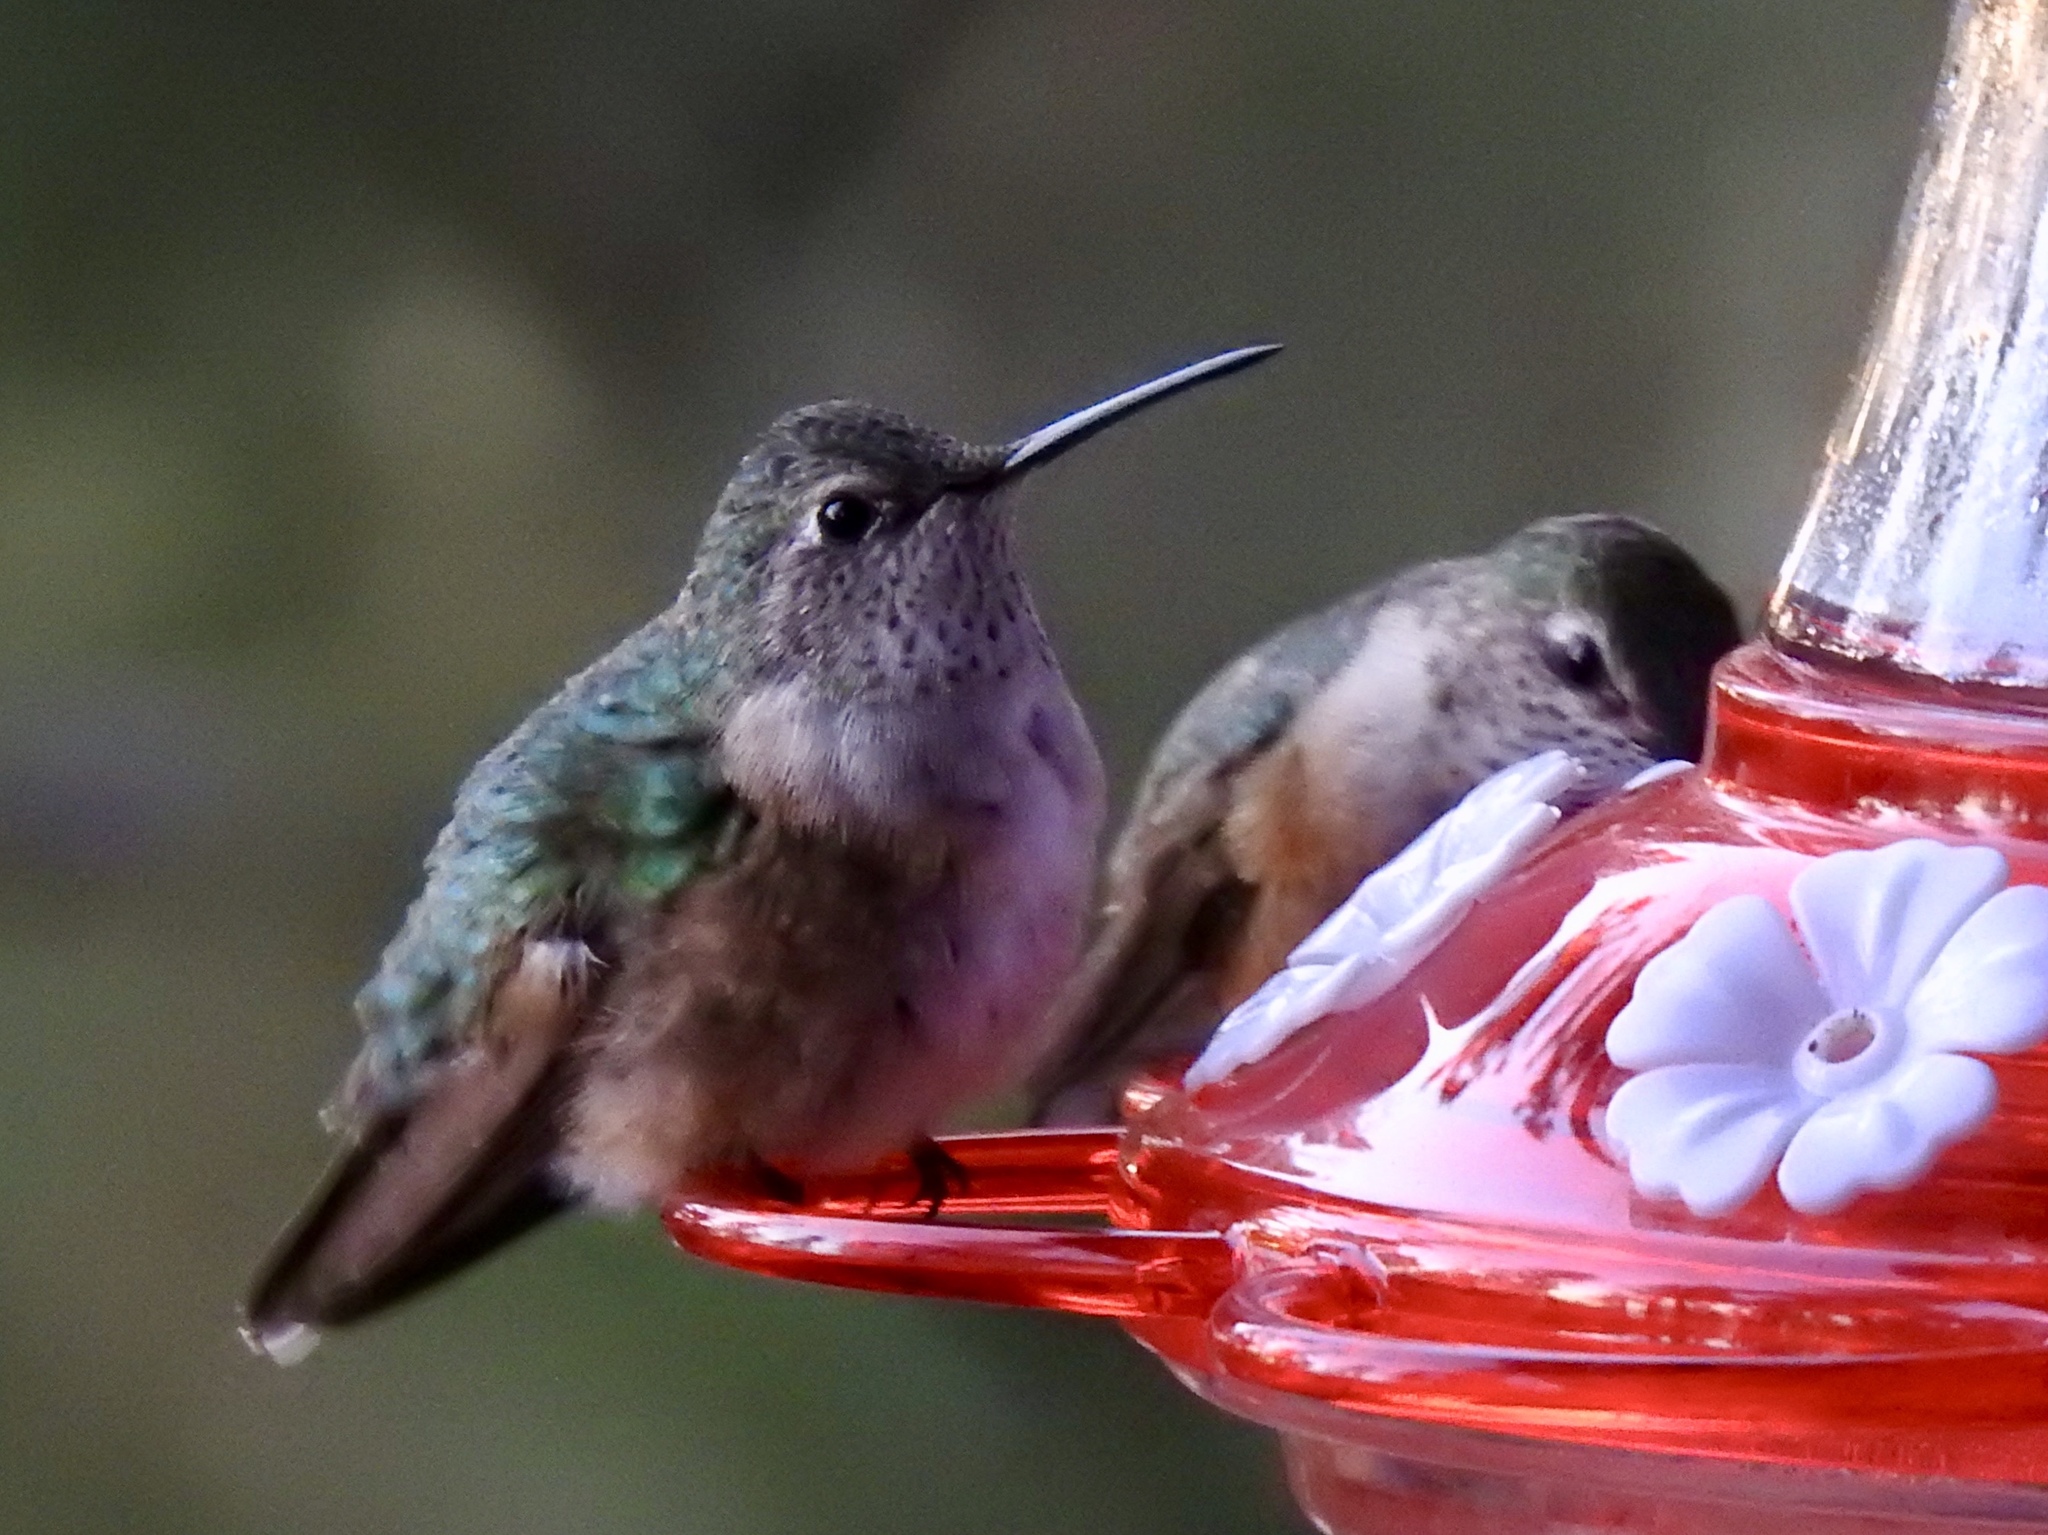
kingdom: Animalia
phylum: Chordata
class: Aves
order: Apodiformes
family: Trochilidae
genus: Selasphorus
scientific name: Selasphorus platycercus
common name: Broad-tailed hummingbird
